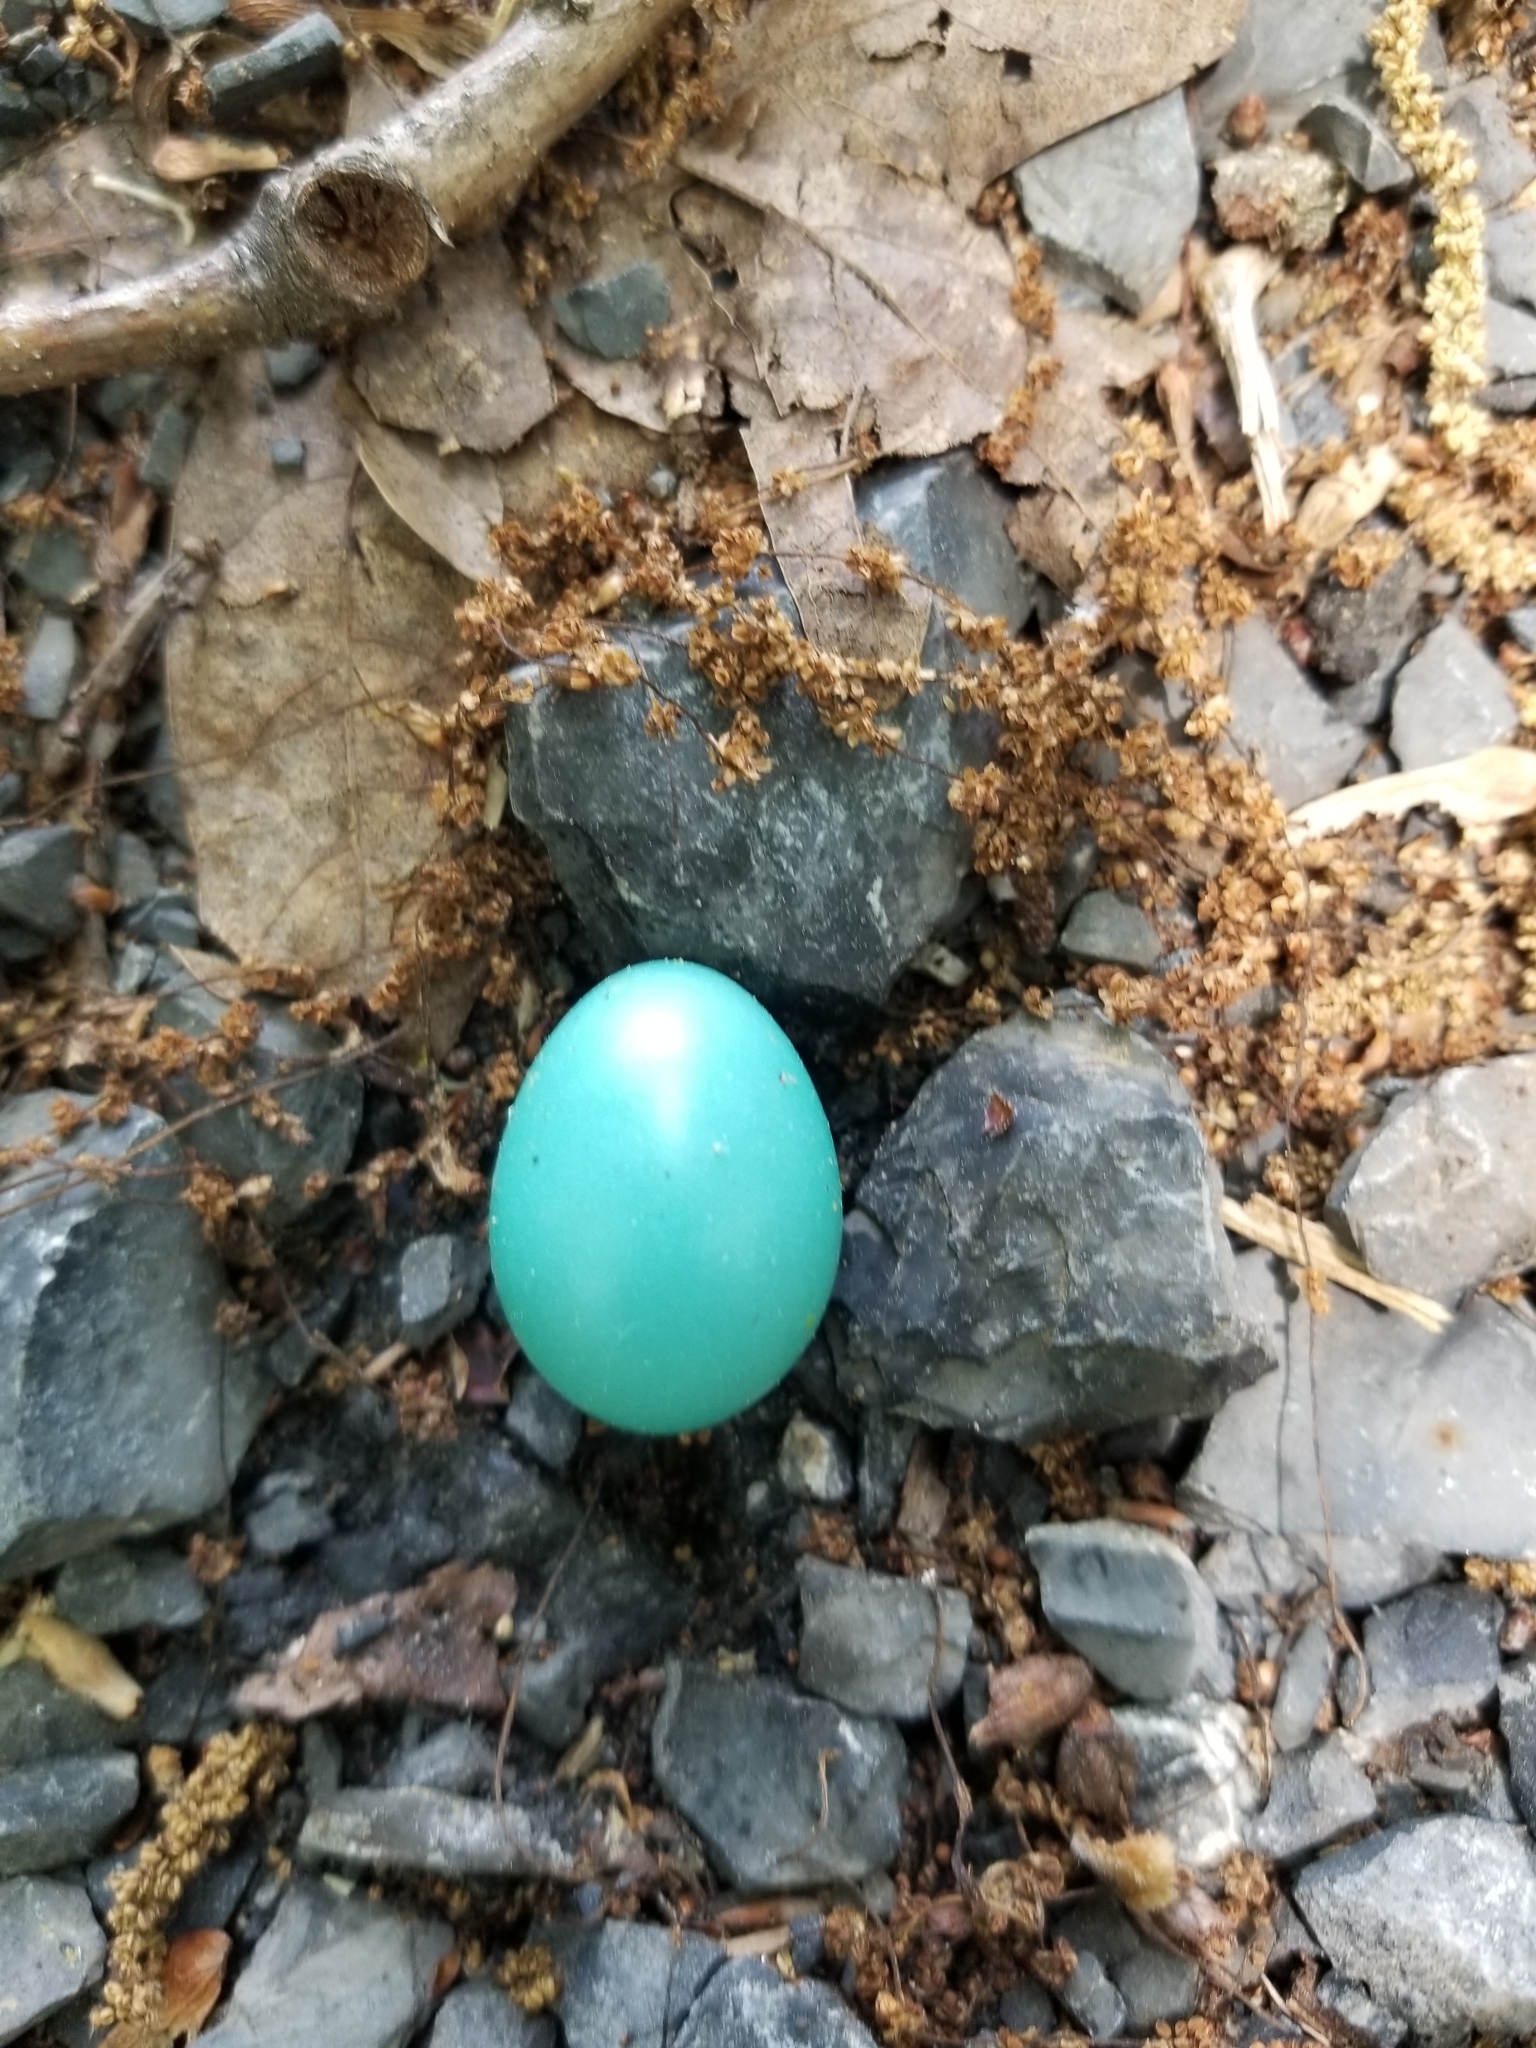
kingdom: Animalia
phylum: Chordata
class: Aves
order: Passeriformes
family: Turdidae
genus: Turdus
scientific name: Turdus migratorius
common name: American robin
